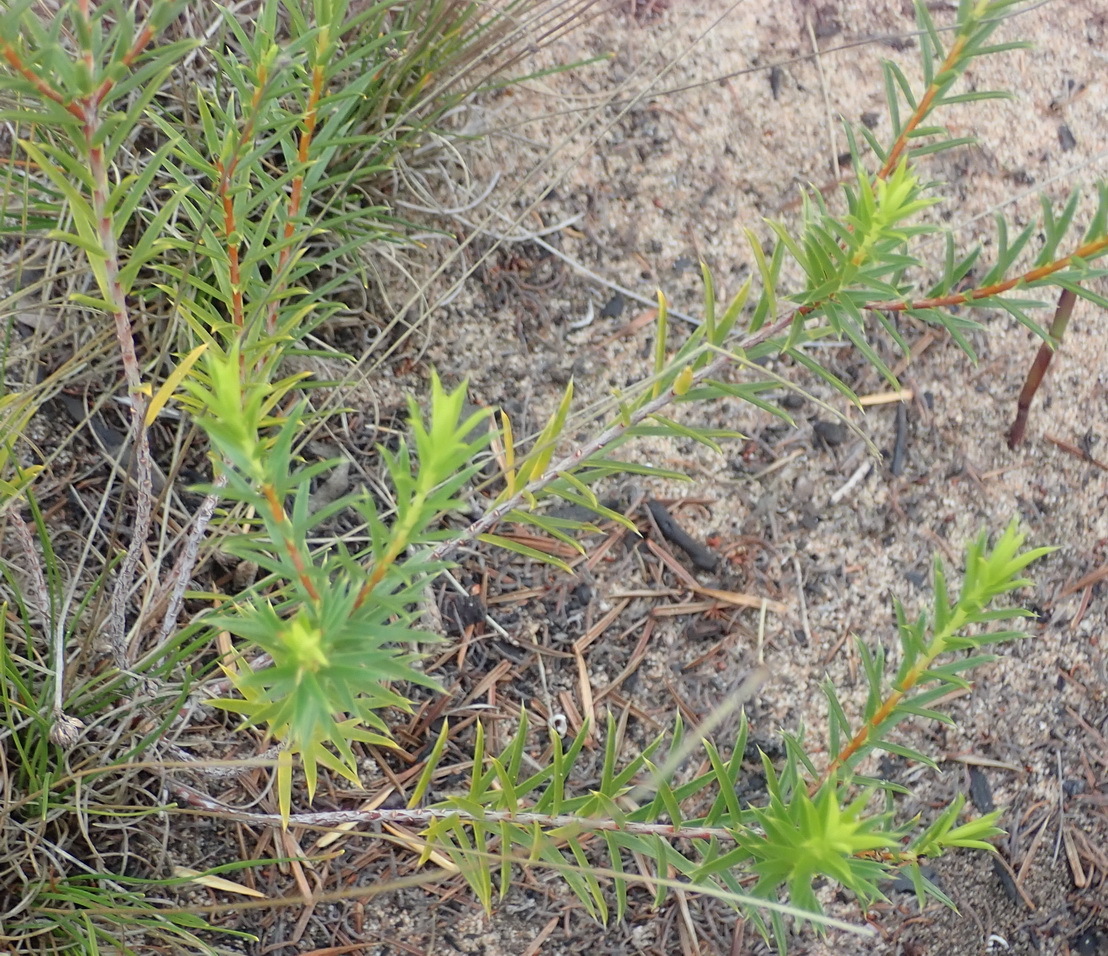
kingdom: Plantae
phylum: Tracheophyta
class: Magnoliopsida
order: Sapindales
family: Rutaceae
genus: Diosma
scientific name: Diosma aristata
